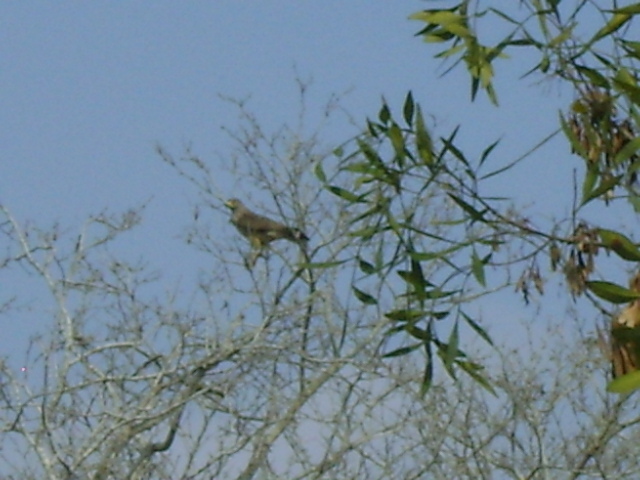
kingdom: Animalia
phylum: Chordata
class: Aves
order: Accipitriformes
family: Accipitridae
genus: Rupornis
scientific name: Rupornis magnirostris
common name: Roadside hawk
